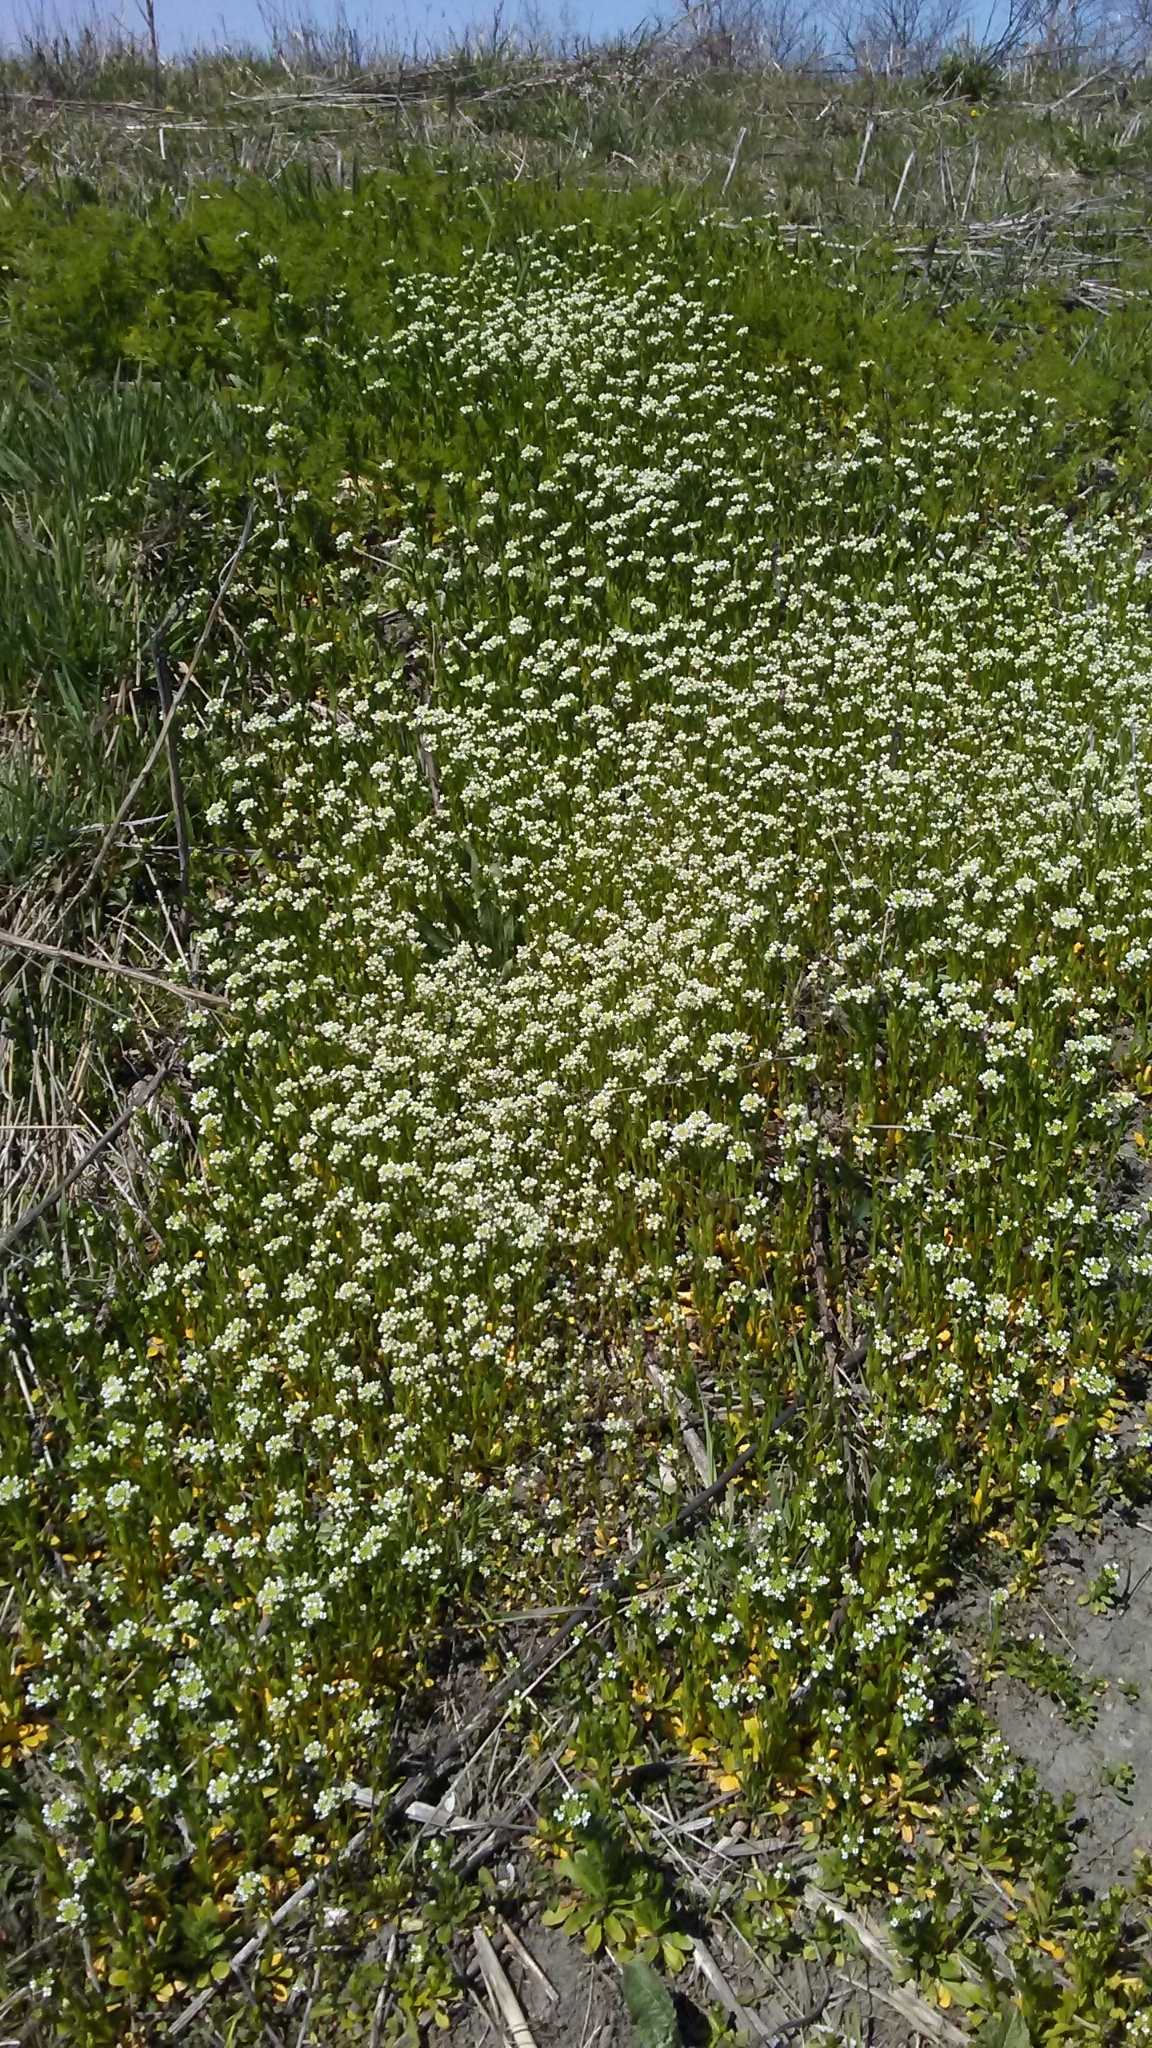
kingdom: Plantae
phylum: Tracheophyta
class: Magnoliopsida
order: Brassicales
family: Brassicaceae
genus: Thlaspi
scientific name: Thlaspi arvense
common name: Field pennycress
